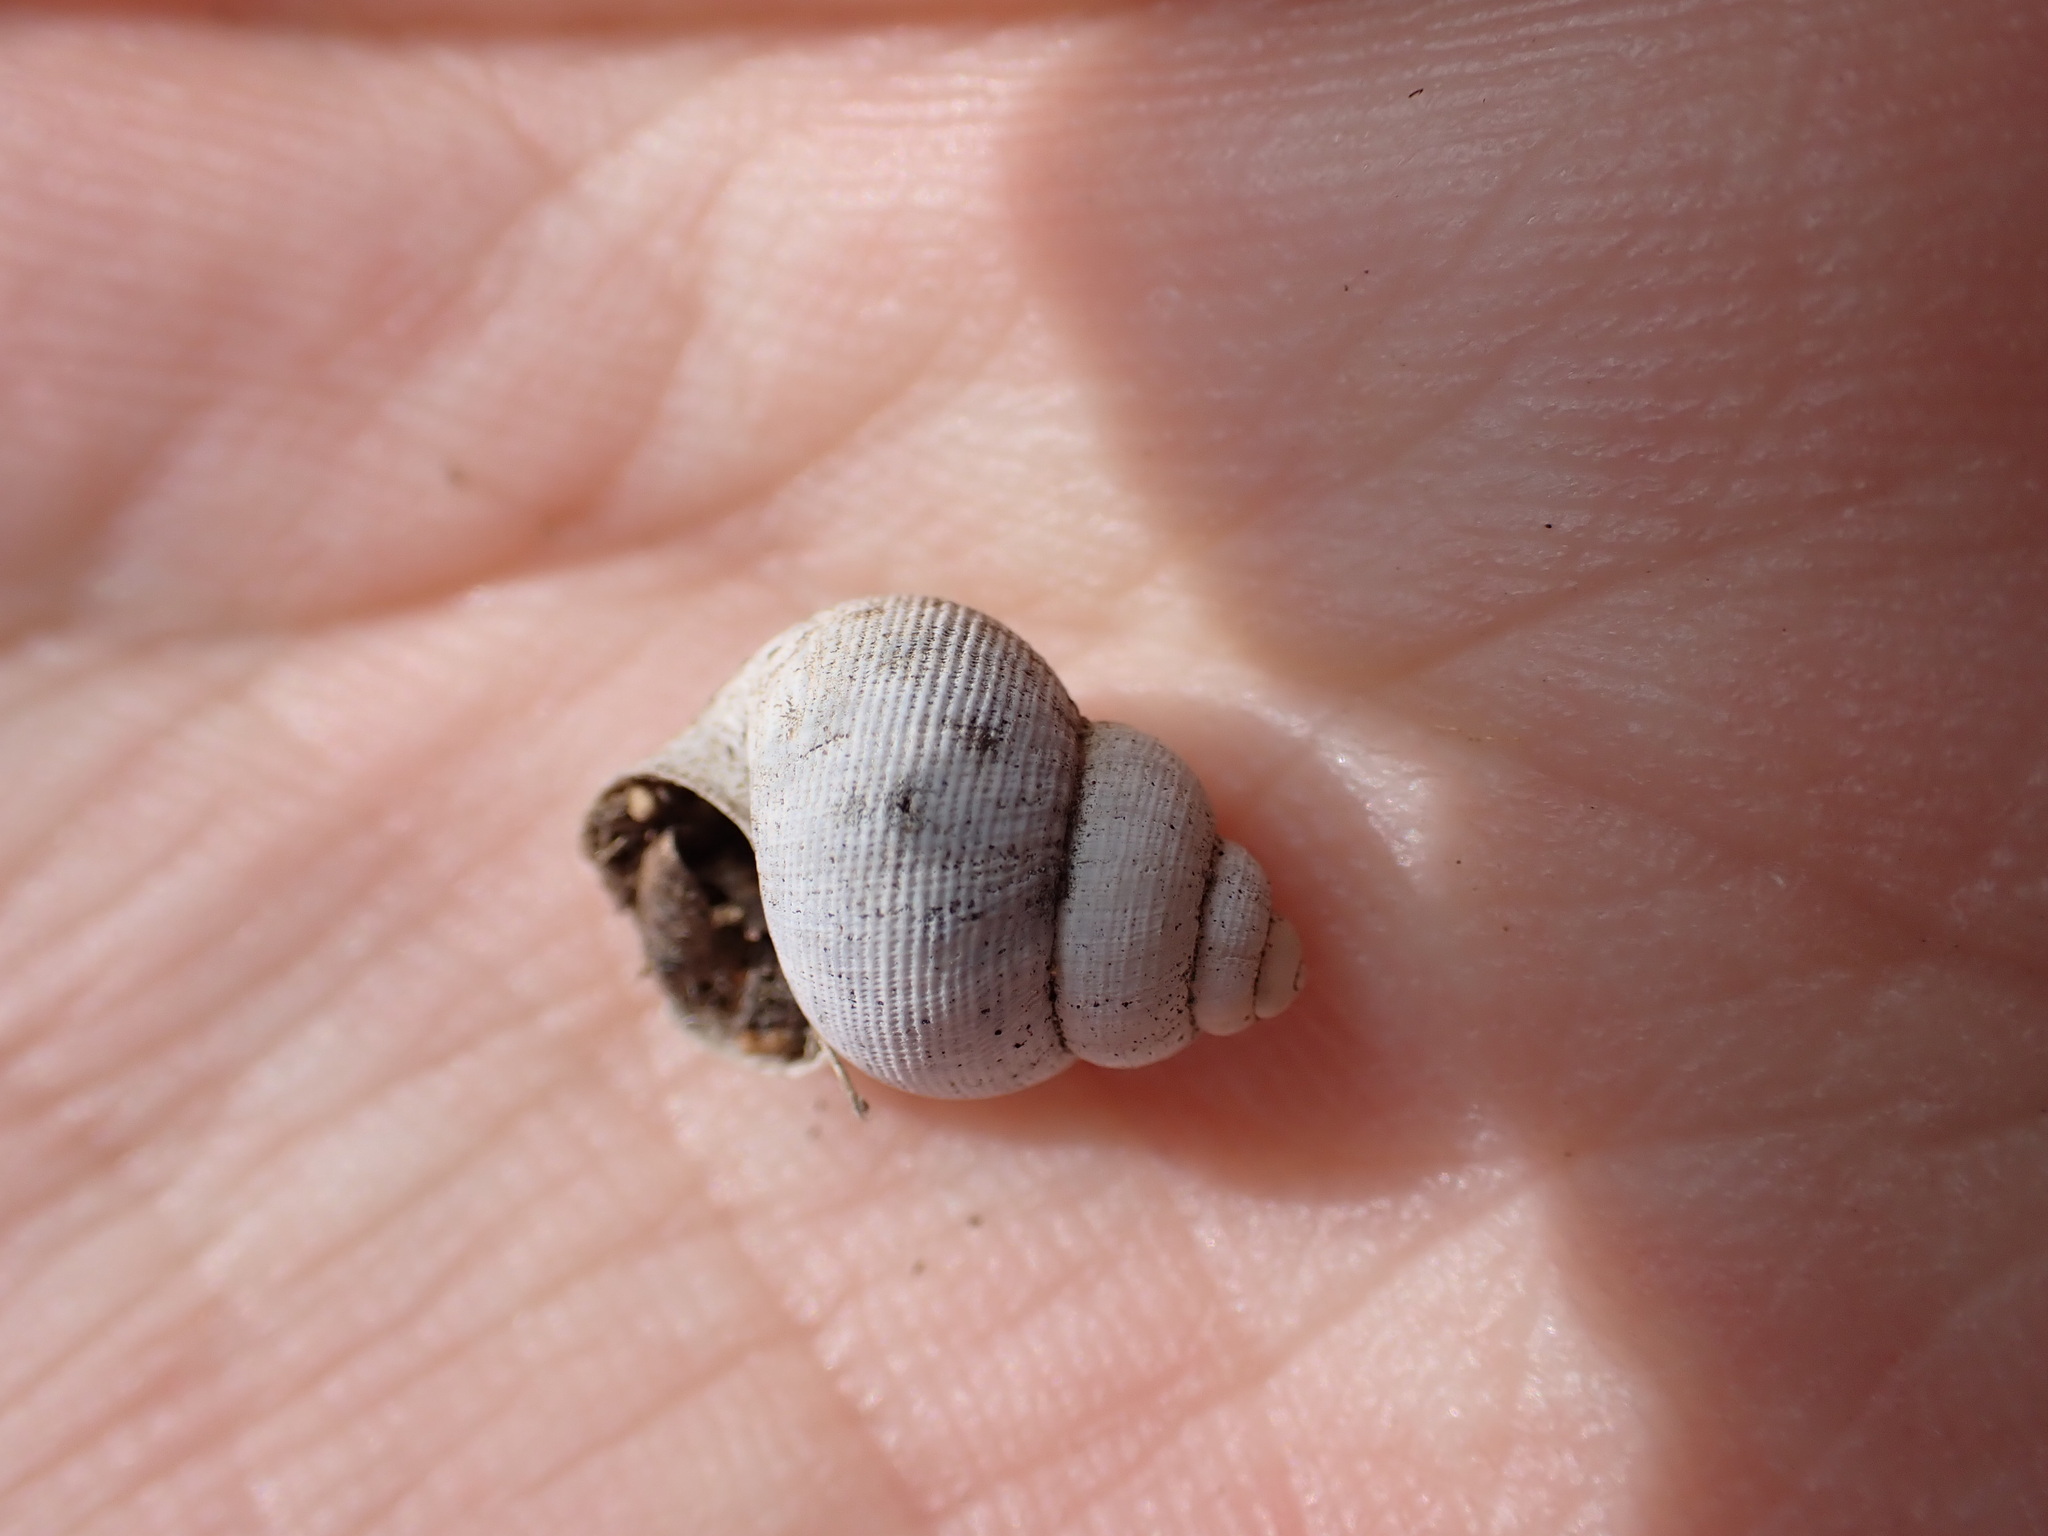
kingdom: Animalia
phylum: Mollusca
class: Gastropoda
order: Littorinimorpha
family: Pomatiidae
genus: Pomatias
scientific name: Pomatias elegans
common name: Red-mouthed snail
